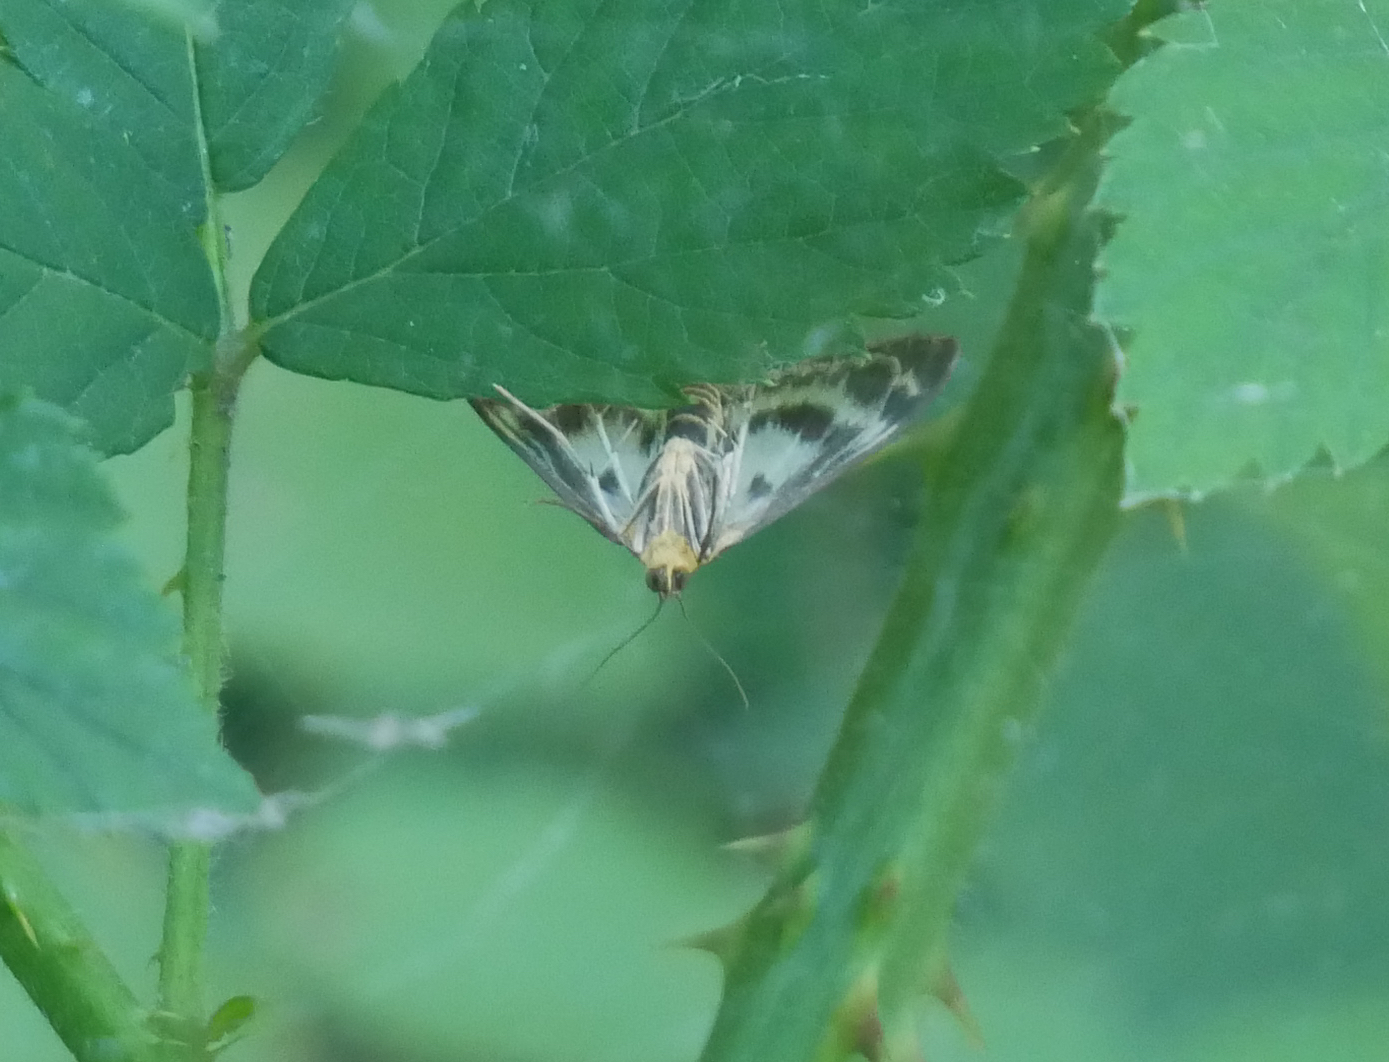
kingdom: Animalia
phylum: Arthropoda
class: Insecta
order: Lepidoptera
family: Crambidae
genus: Anania
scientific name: Anania hortulata
